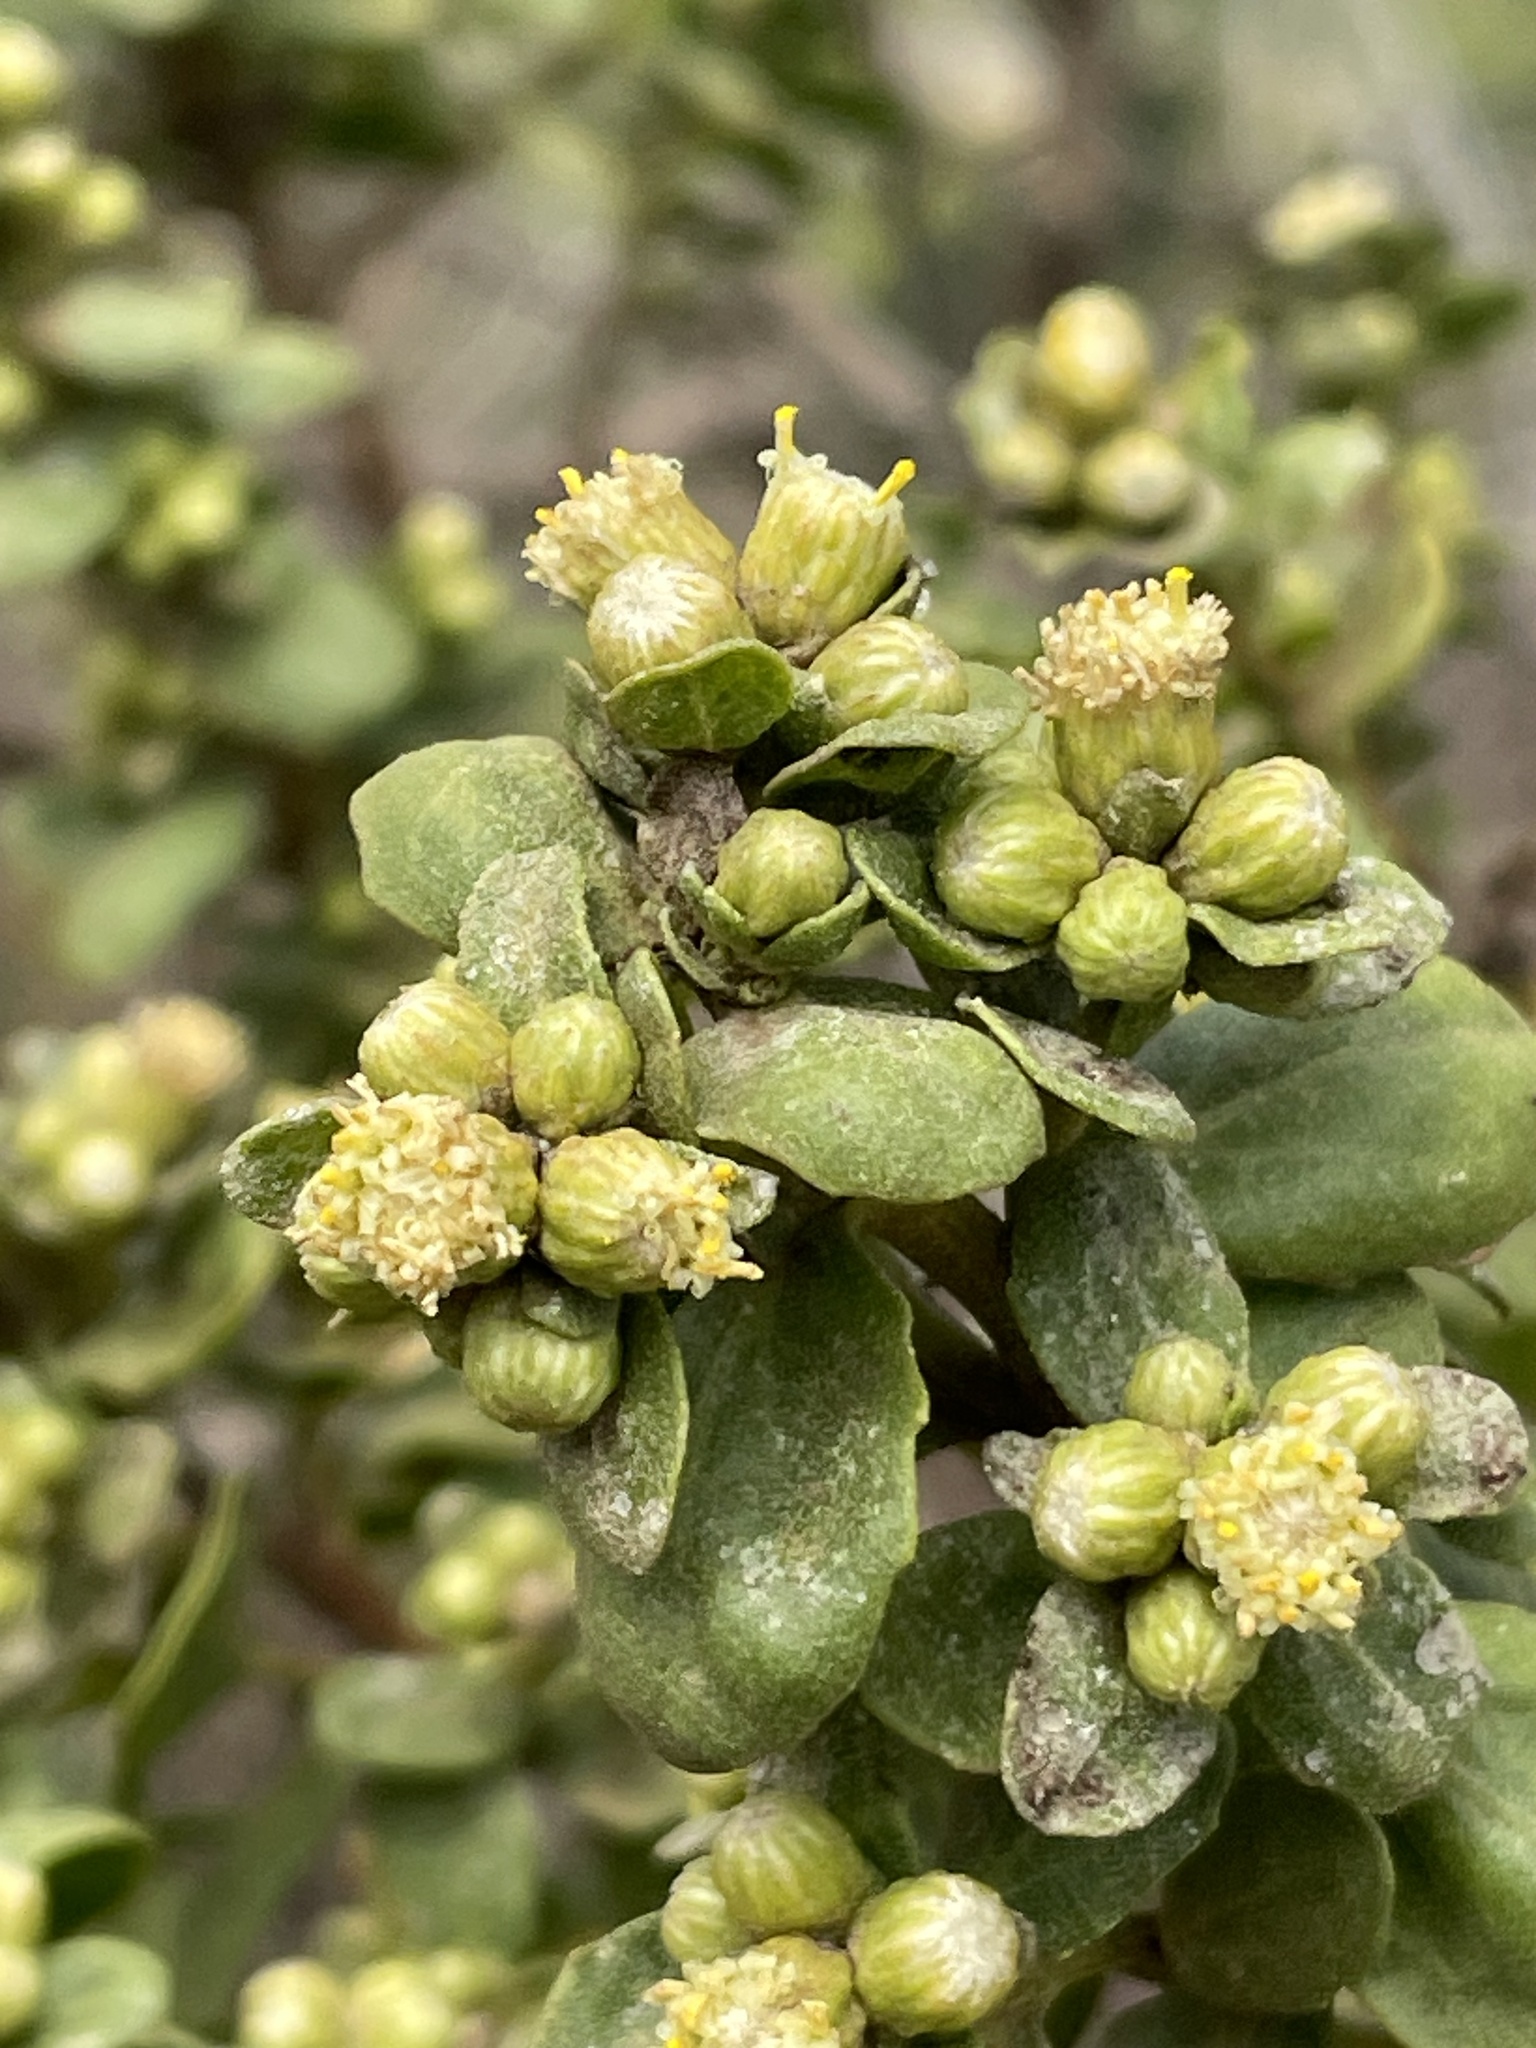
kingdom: Plantae
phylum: Tracheophyta
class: Magnoliopsida
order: Asterales
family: Asteraceae
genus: Baccharis
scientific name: Baccharis pilularis
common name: Coyotebrush
